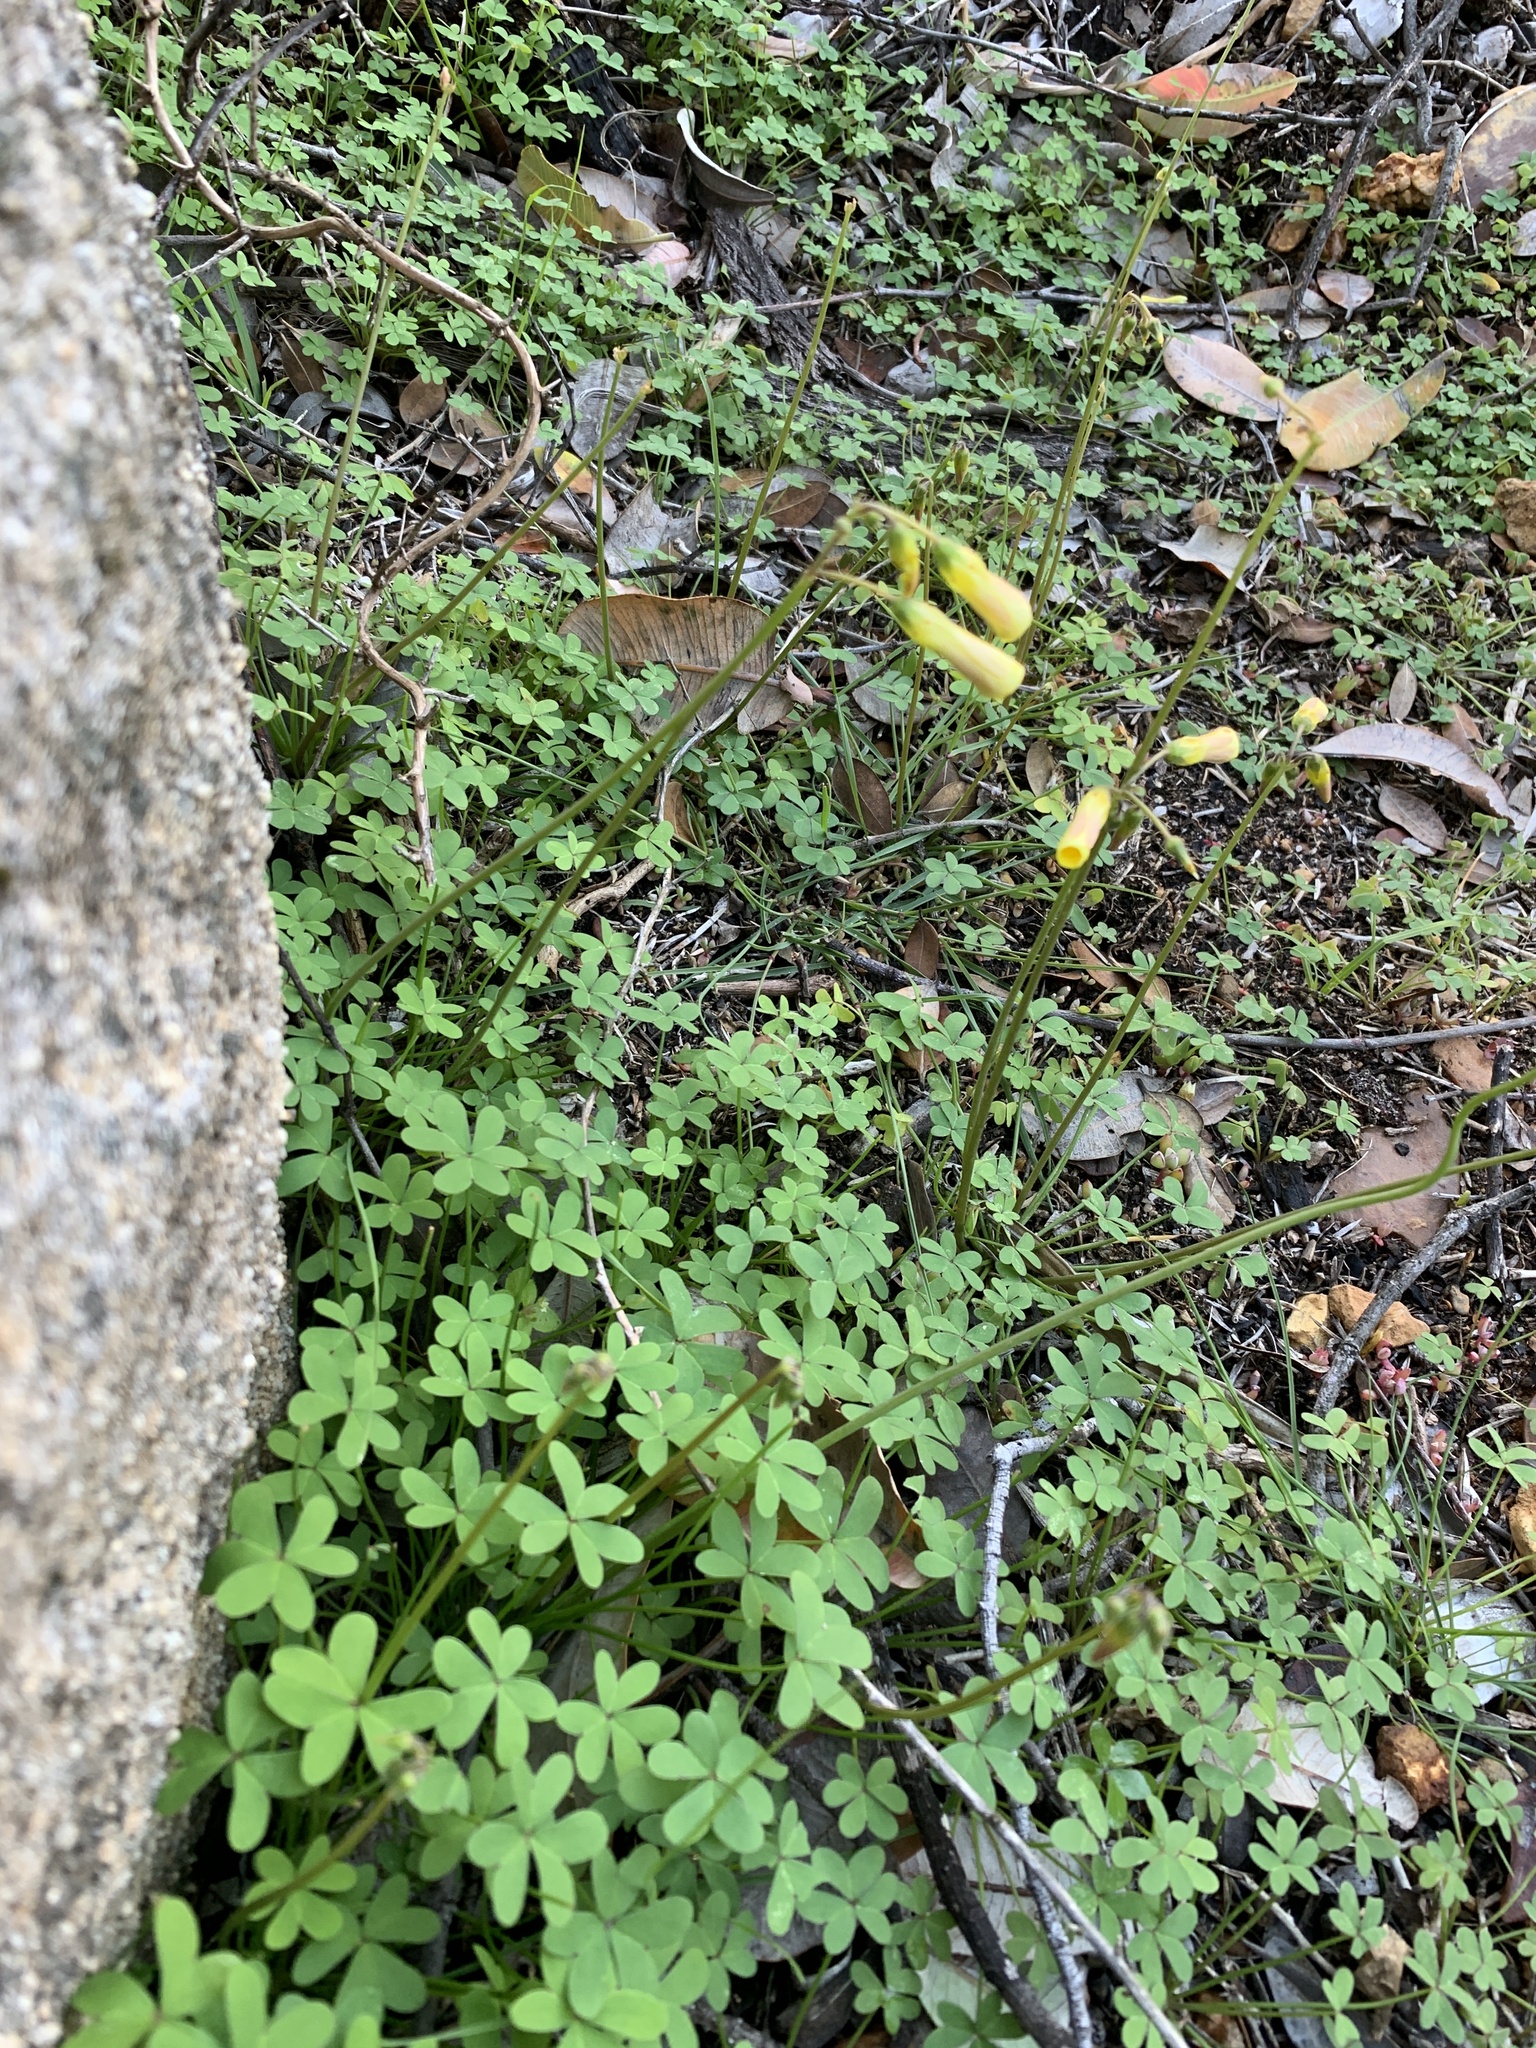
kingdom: Plantae
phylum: Tracheophyta
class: Magnoliopsida
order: Oxalidales
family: Oxalidaceae
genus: Oxalis
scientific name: Oxalis pes-caprae
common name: Bermuda-buttercup
